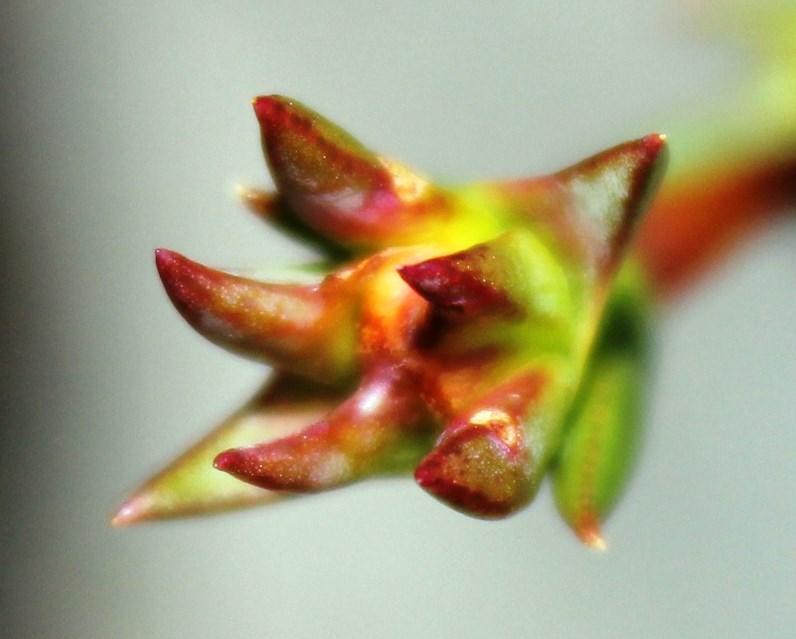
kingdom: Plantae
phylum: Tracheophyta
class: Magnoliopsida
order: Caryophyllales
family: Aizoaceae
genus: Erepsia
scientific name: Erepsia bracteata
